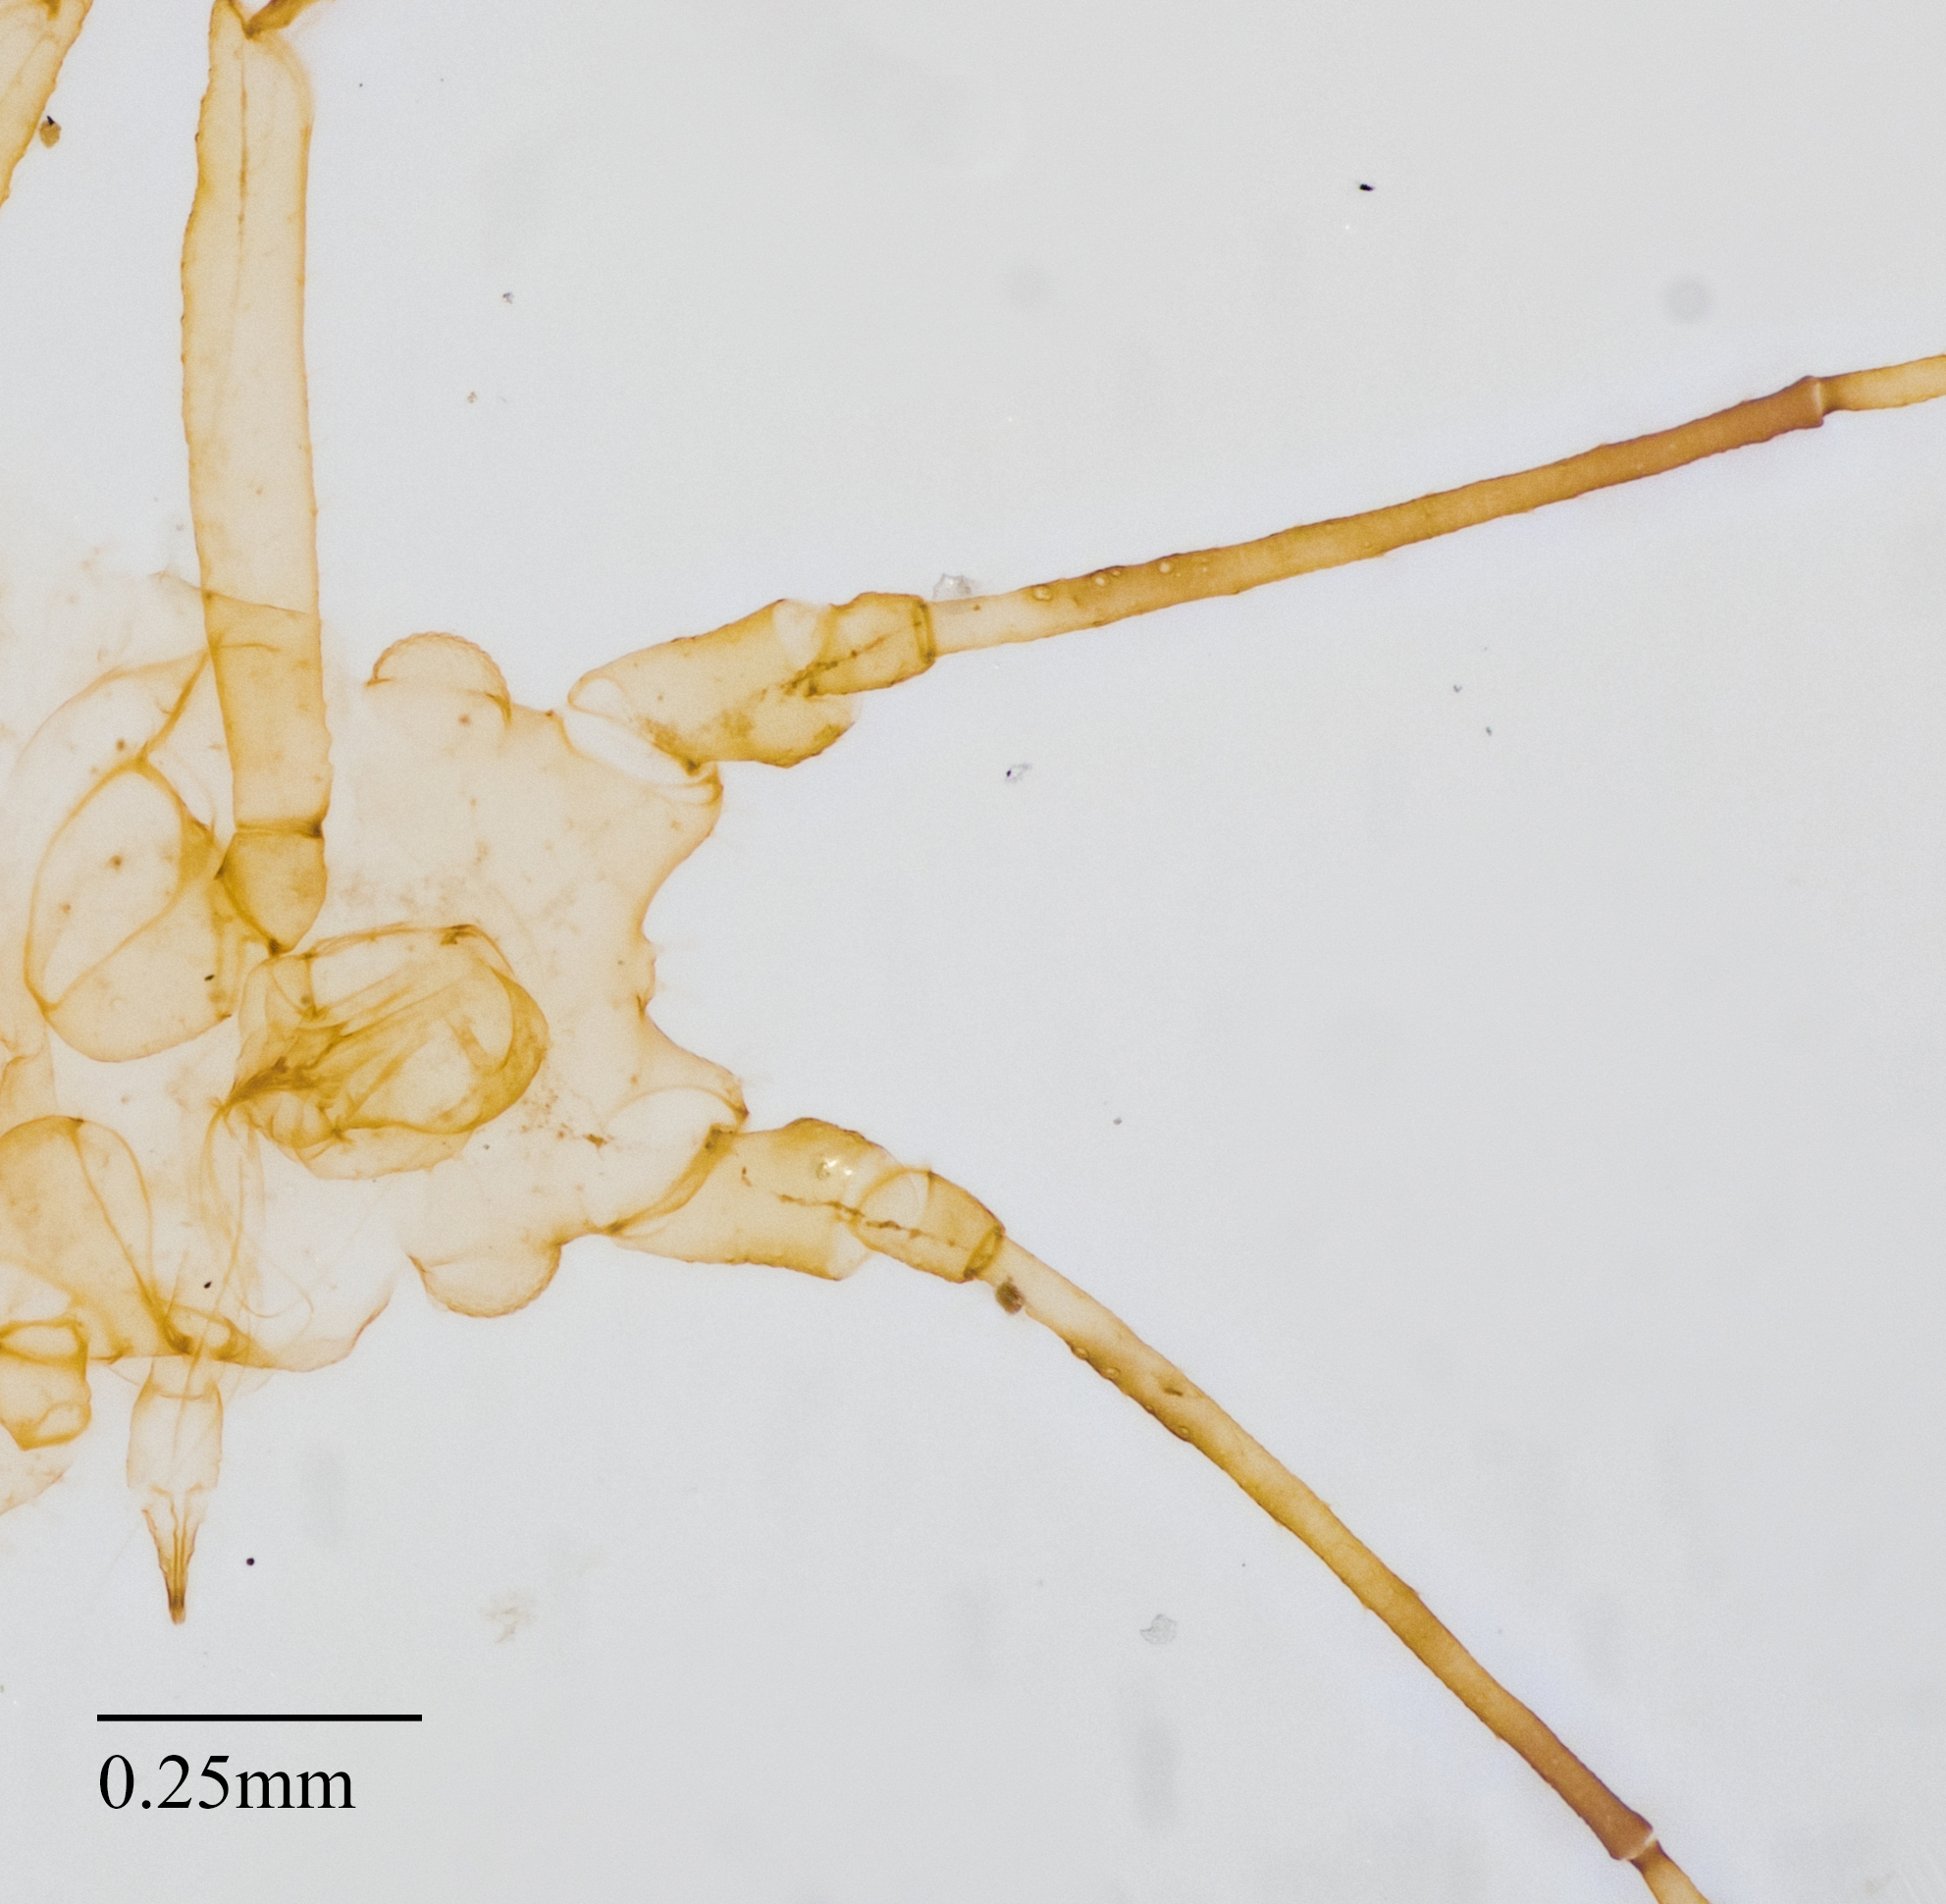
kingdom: Animalia
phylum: Arthropoda
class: Insecta
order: Hemiptera
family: Aphididae
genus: Pleotrichophorus
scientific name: Pleotrichophorus stroudi
